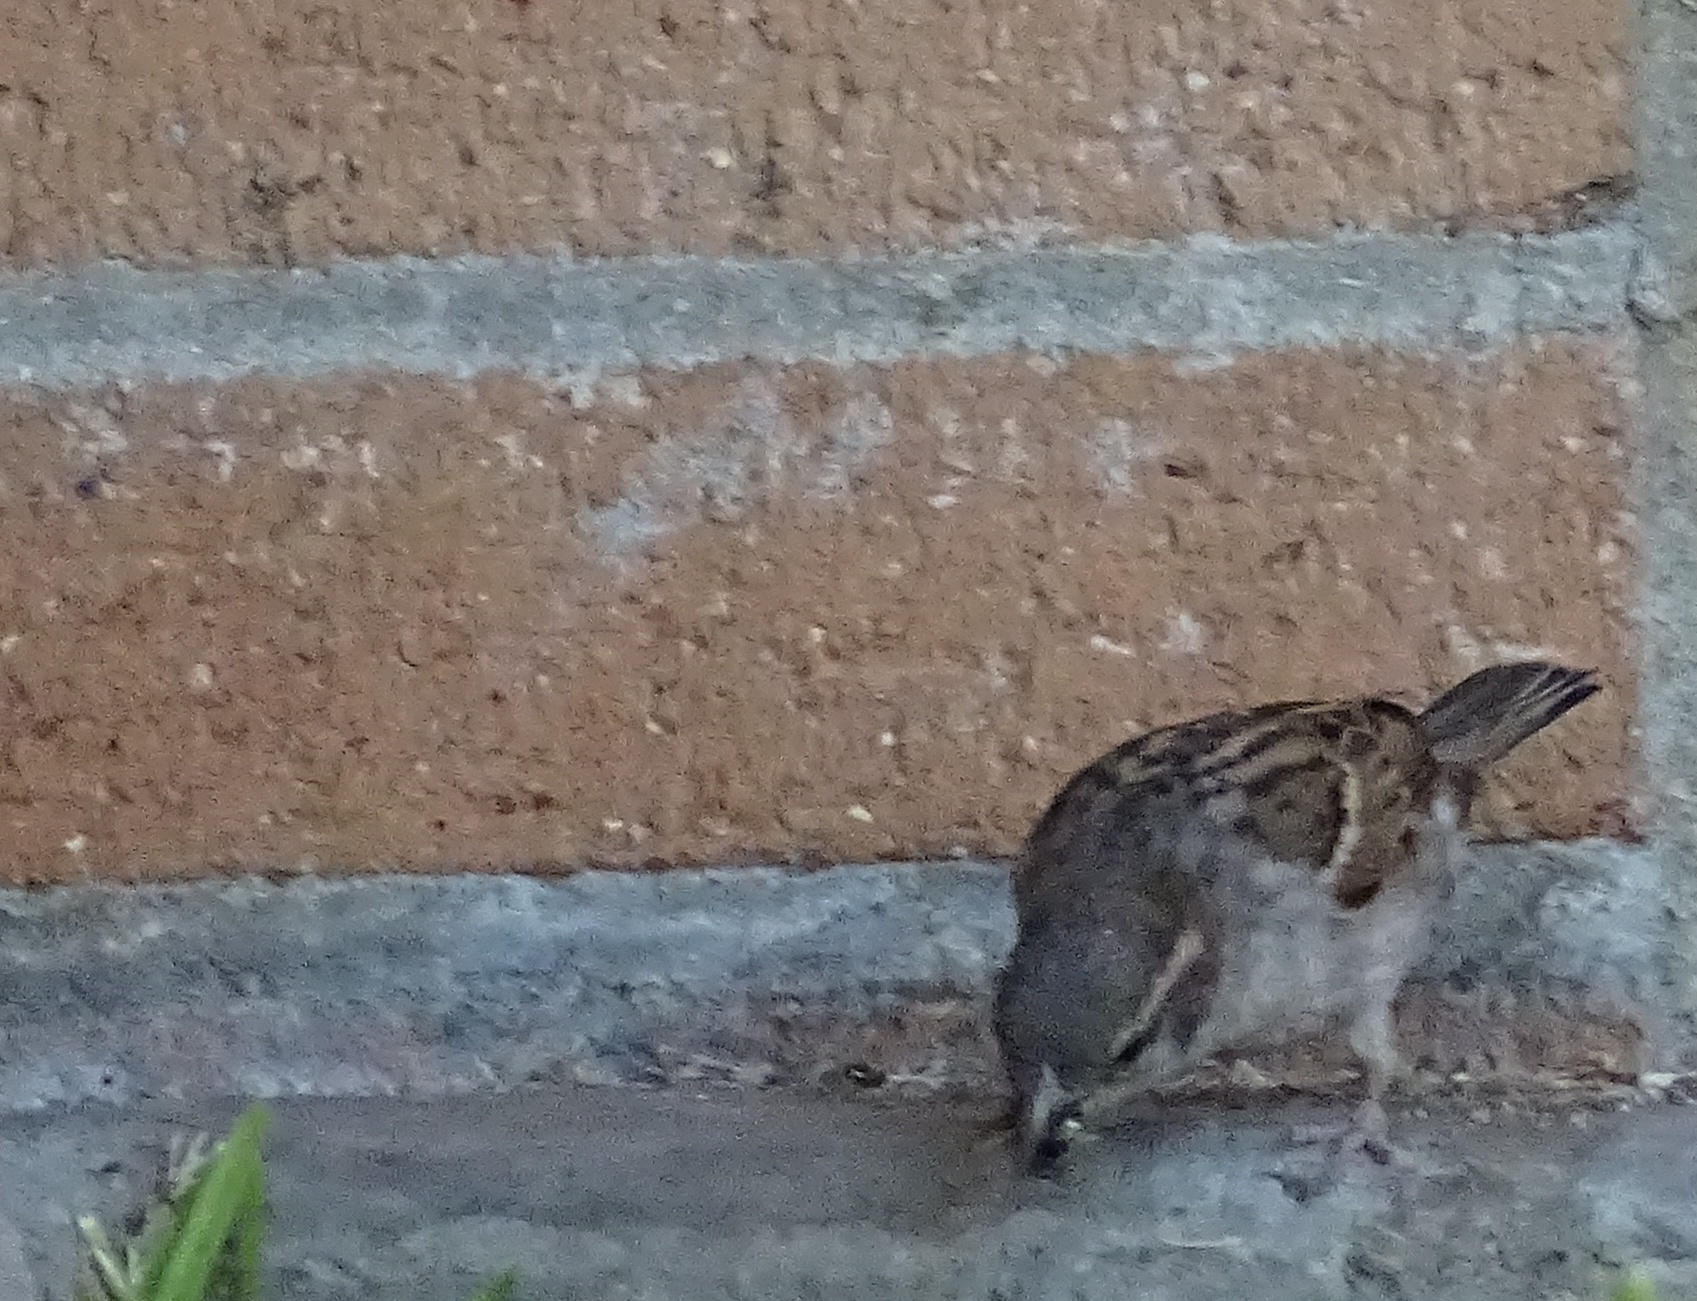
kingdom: Animalia
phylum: Chordata
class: Aves
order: Passeriformes
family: Passeridae
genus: Passer
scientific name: Passer domesticus
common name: House sparrow
